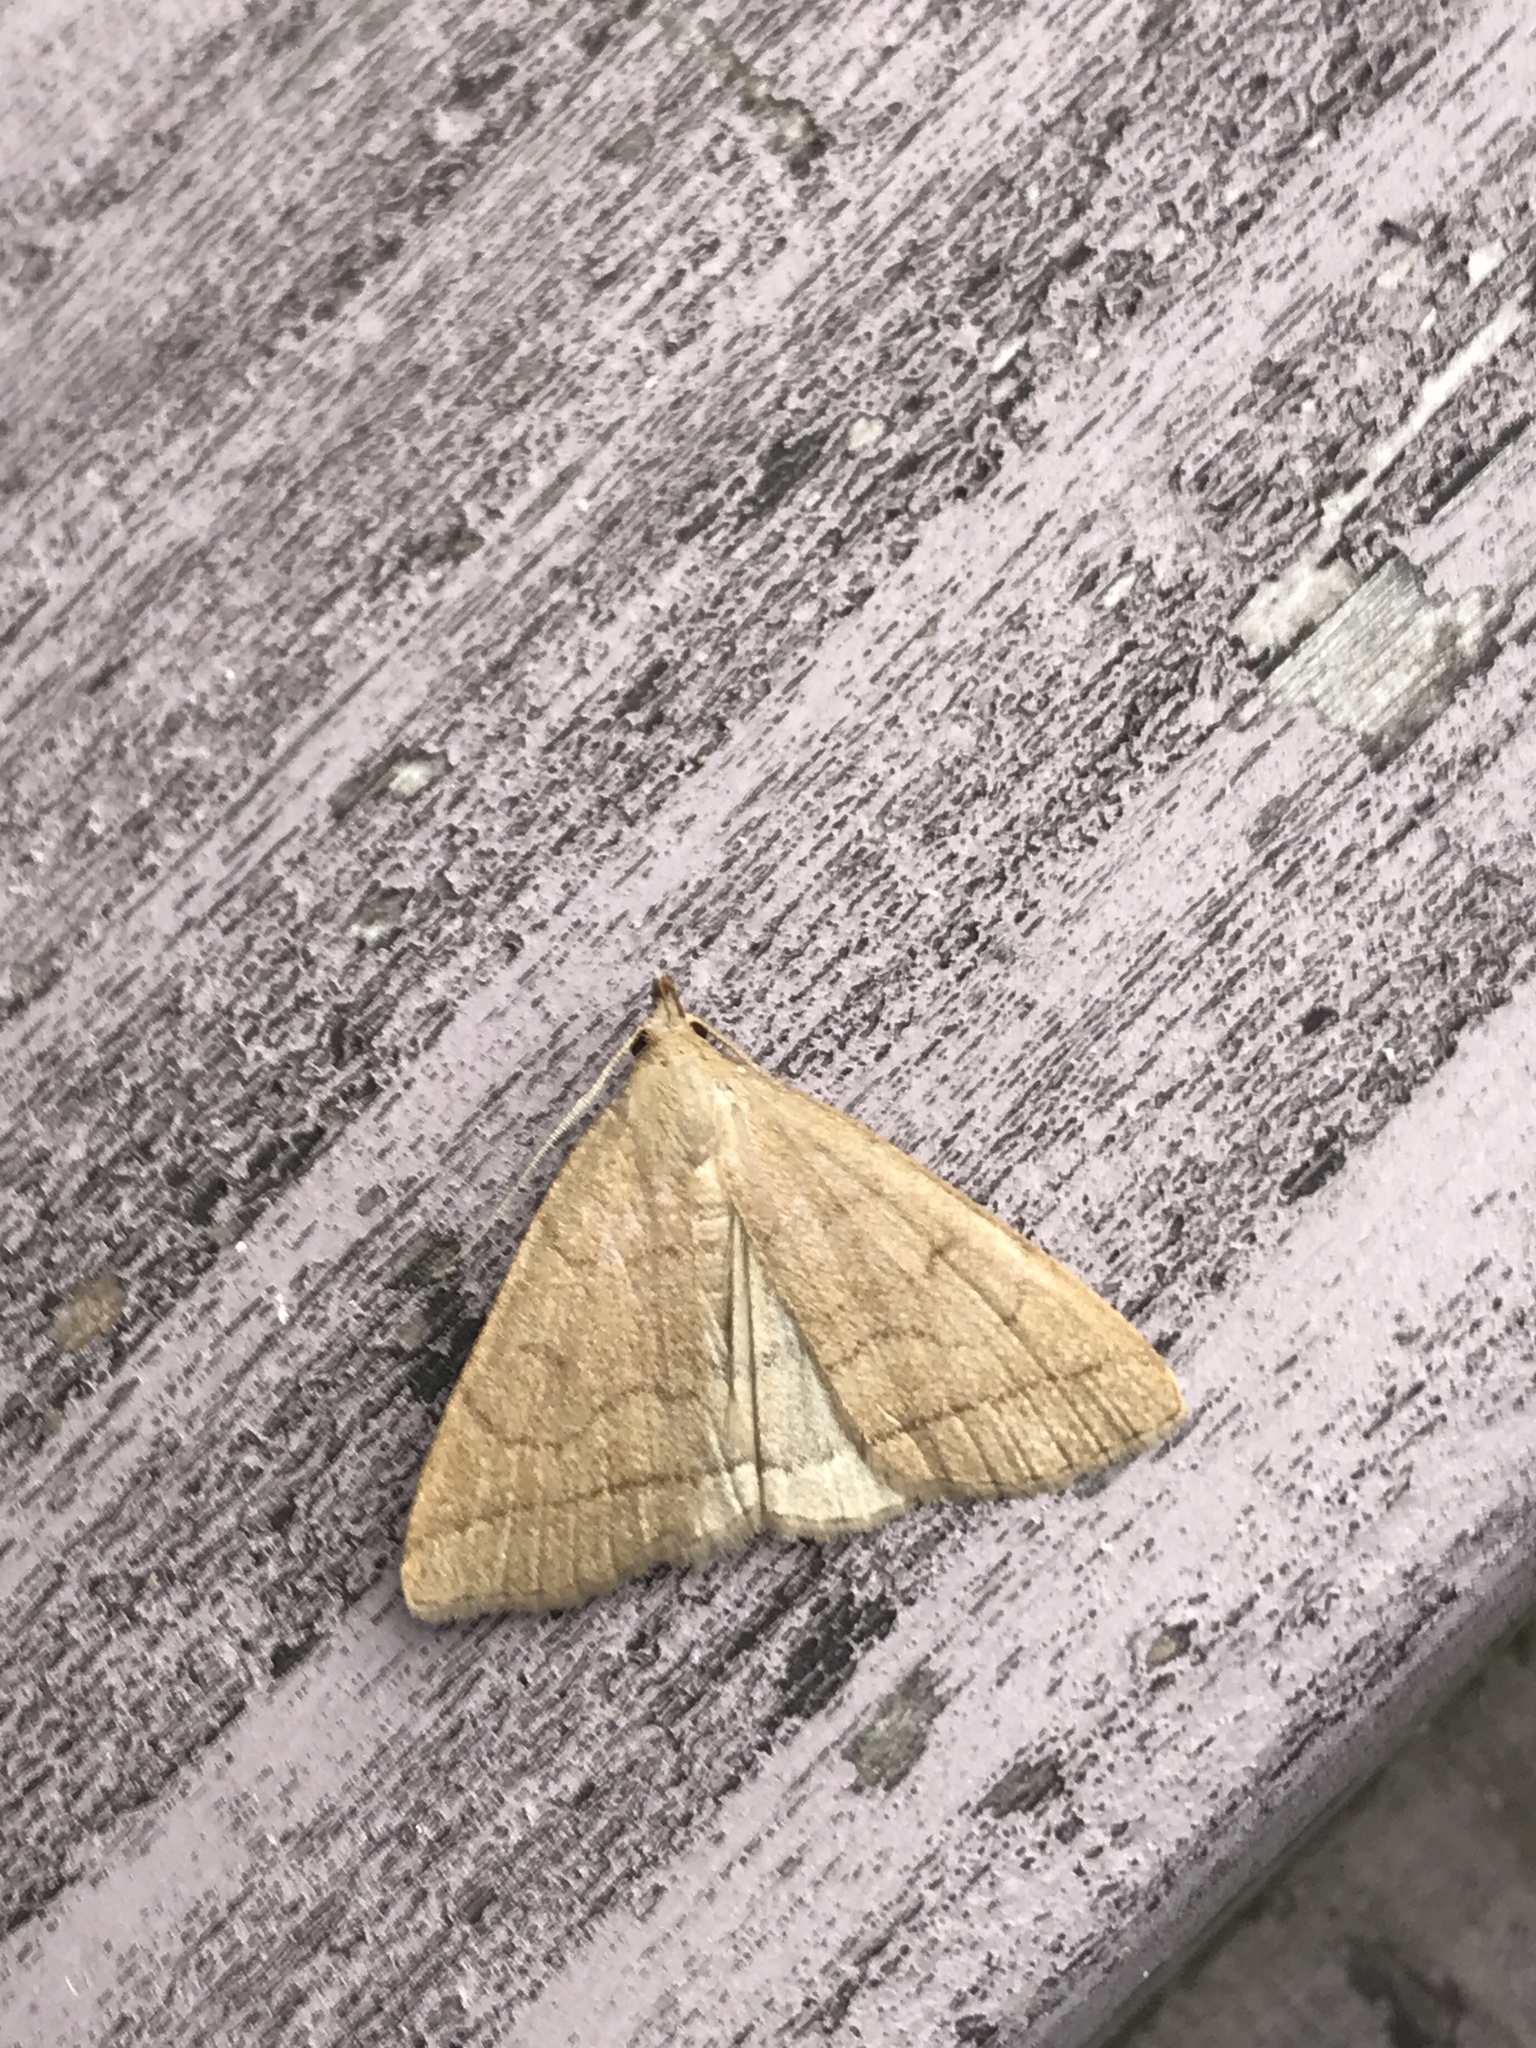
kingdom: Animalia
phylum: Arthropoda
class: Insecta
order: Lepidoptera
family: Erebidae
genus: Herminia
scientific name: Herminia tarsipennalis
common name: Fan-foot
